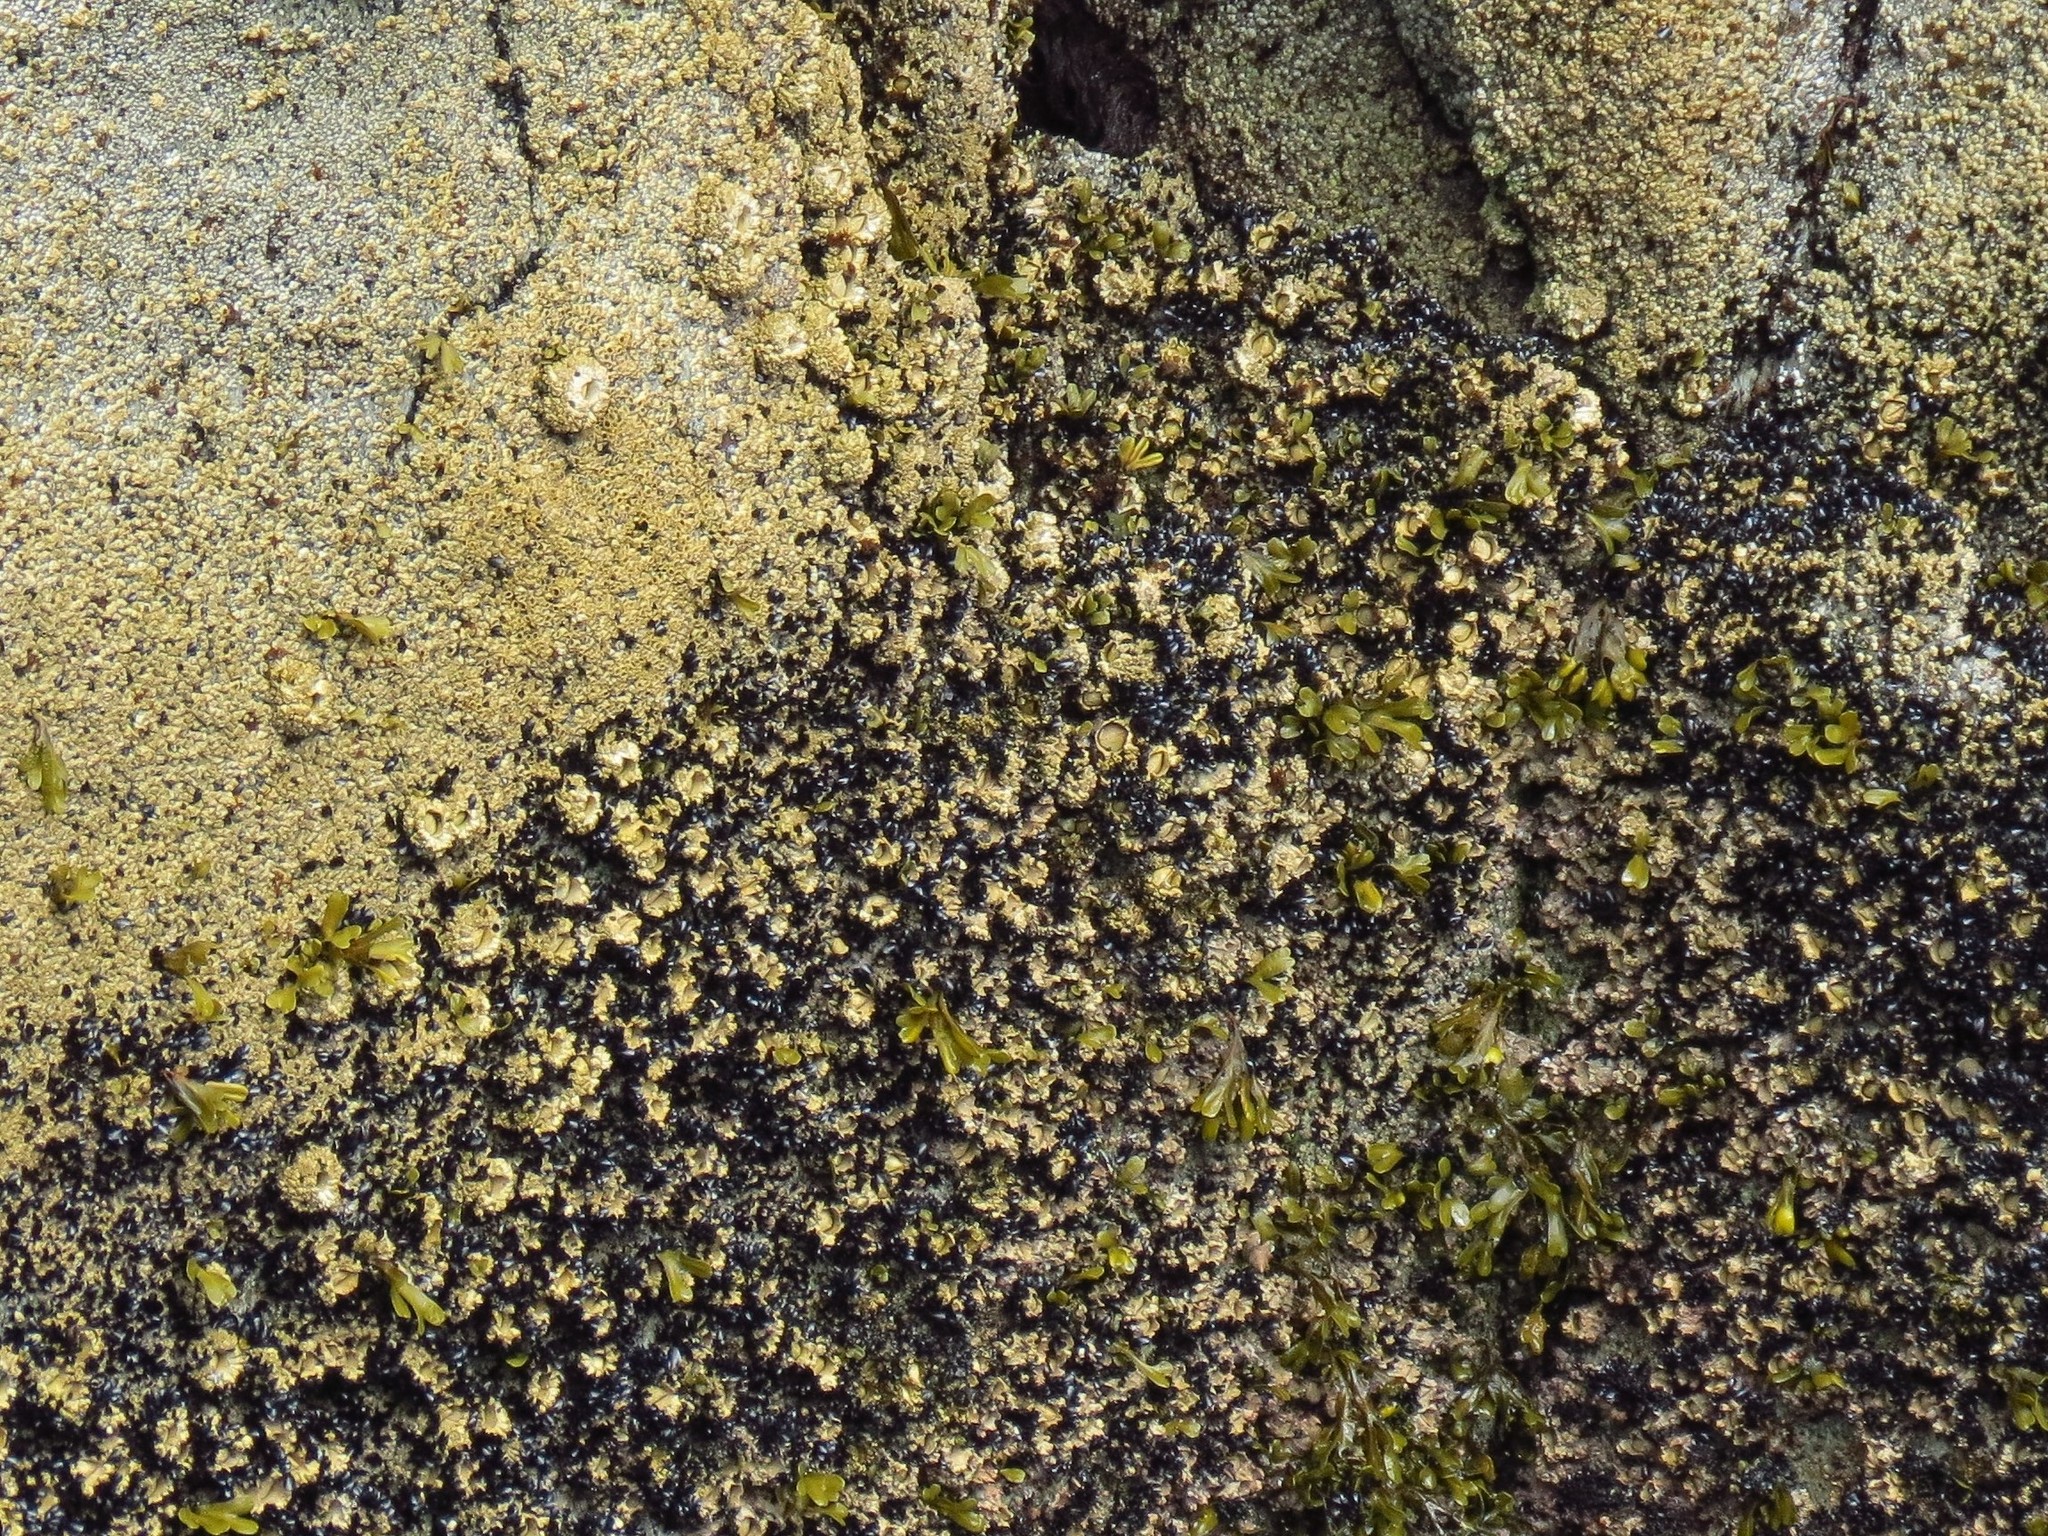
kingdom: Animalia
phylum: Arthropoda
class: Maxillopoda
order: Sessilia
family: Archaeobalanidae
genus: Semibalanus
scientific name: Semibalanus cariosus
